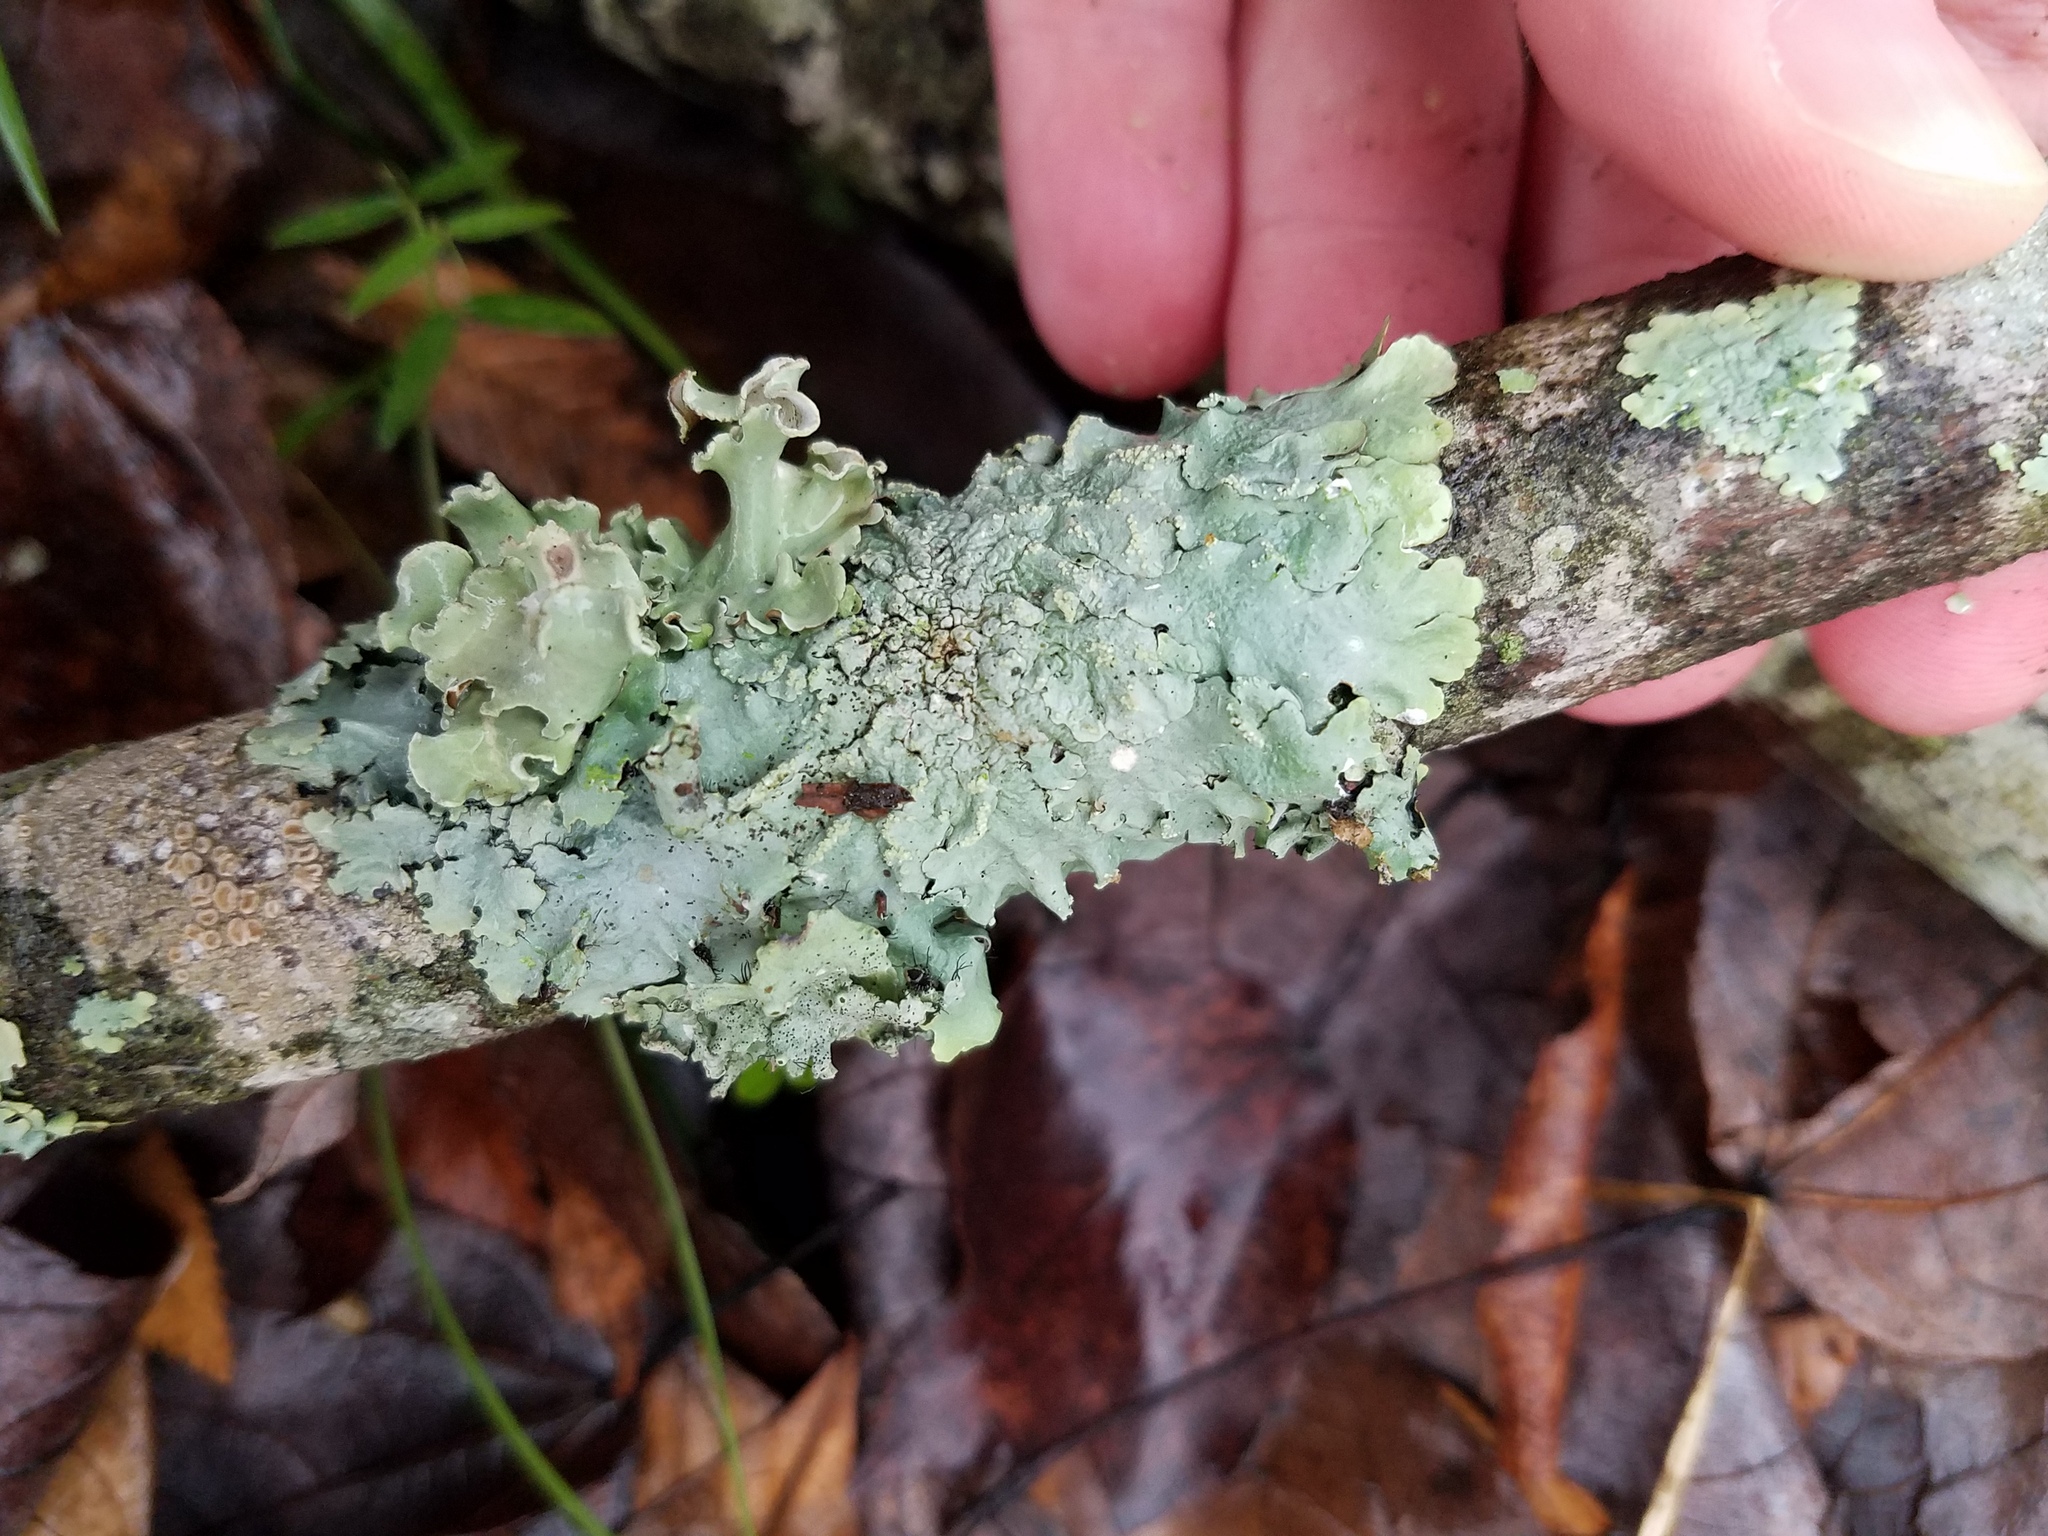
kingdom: Fungi
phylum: Ascomycota
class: Lecanoromycetes
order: Lecanorales
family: Parmeliaceae
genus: Parmotrema
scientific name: Parmotrema austrosinense
